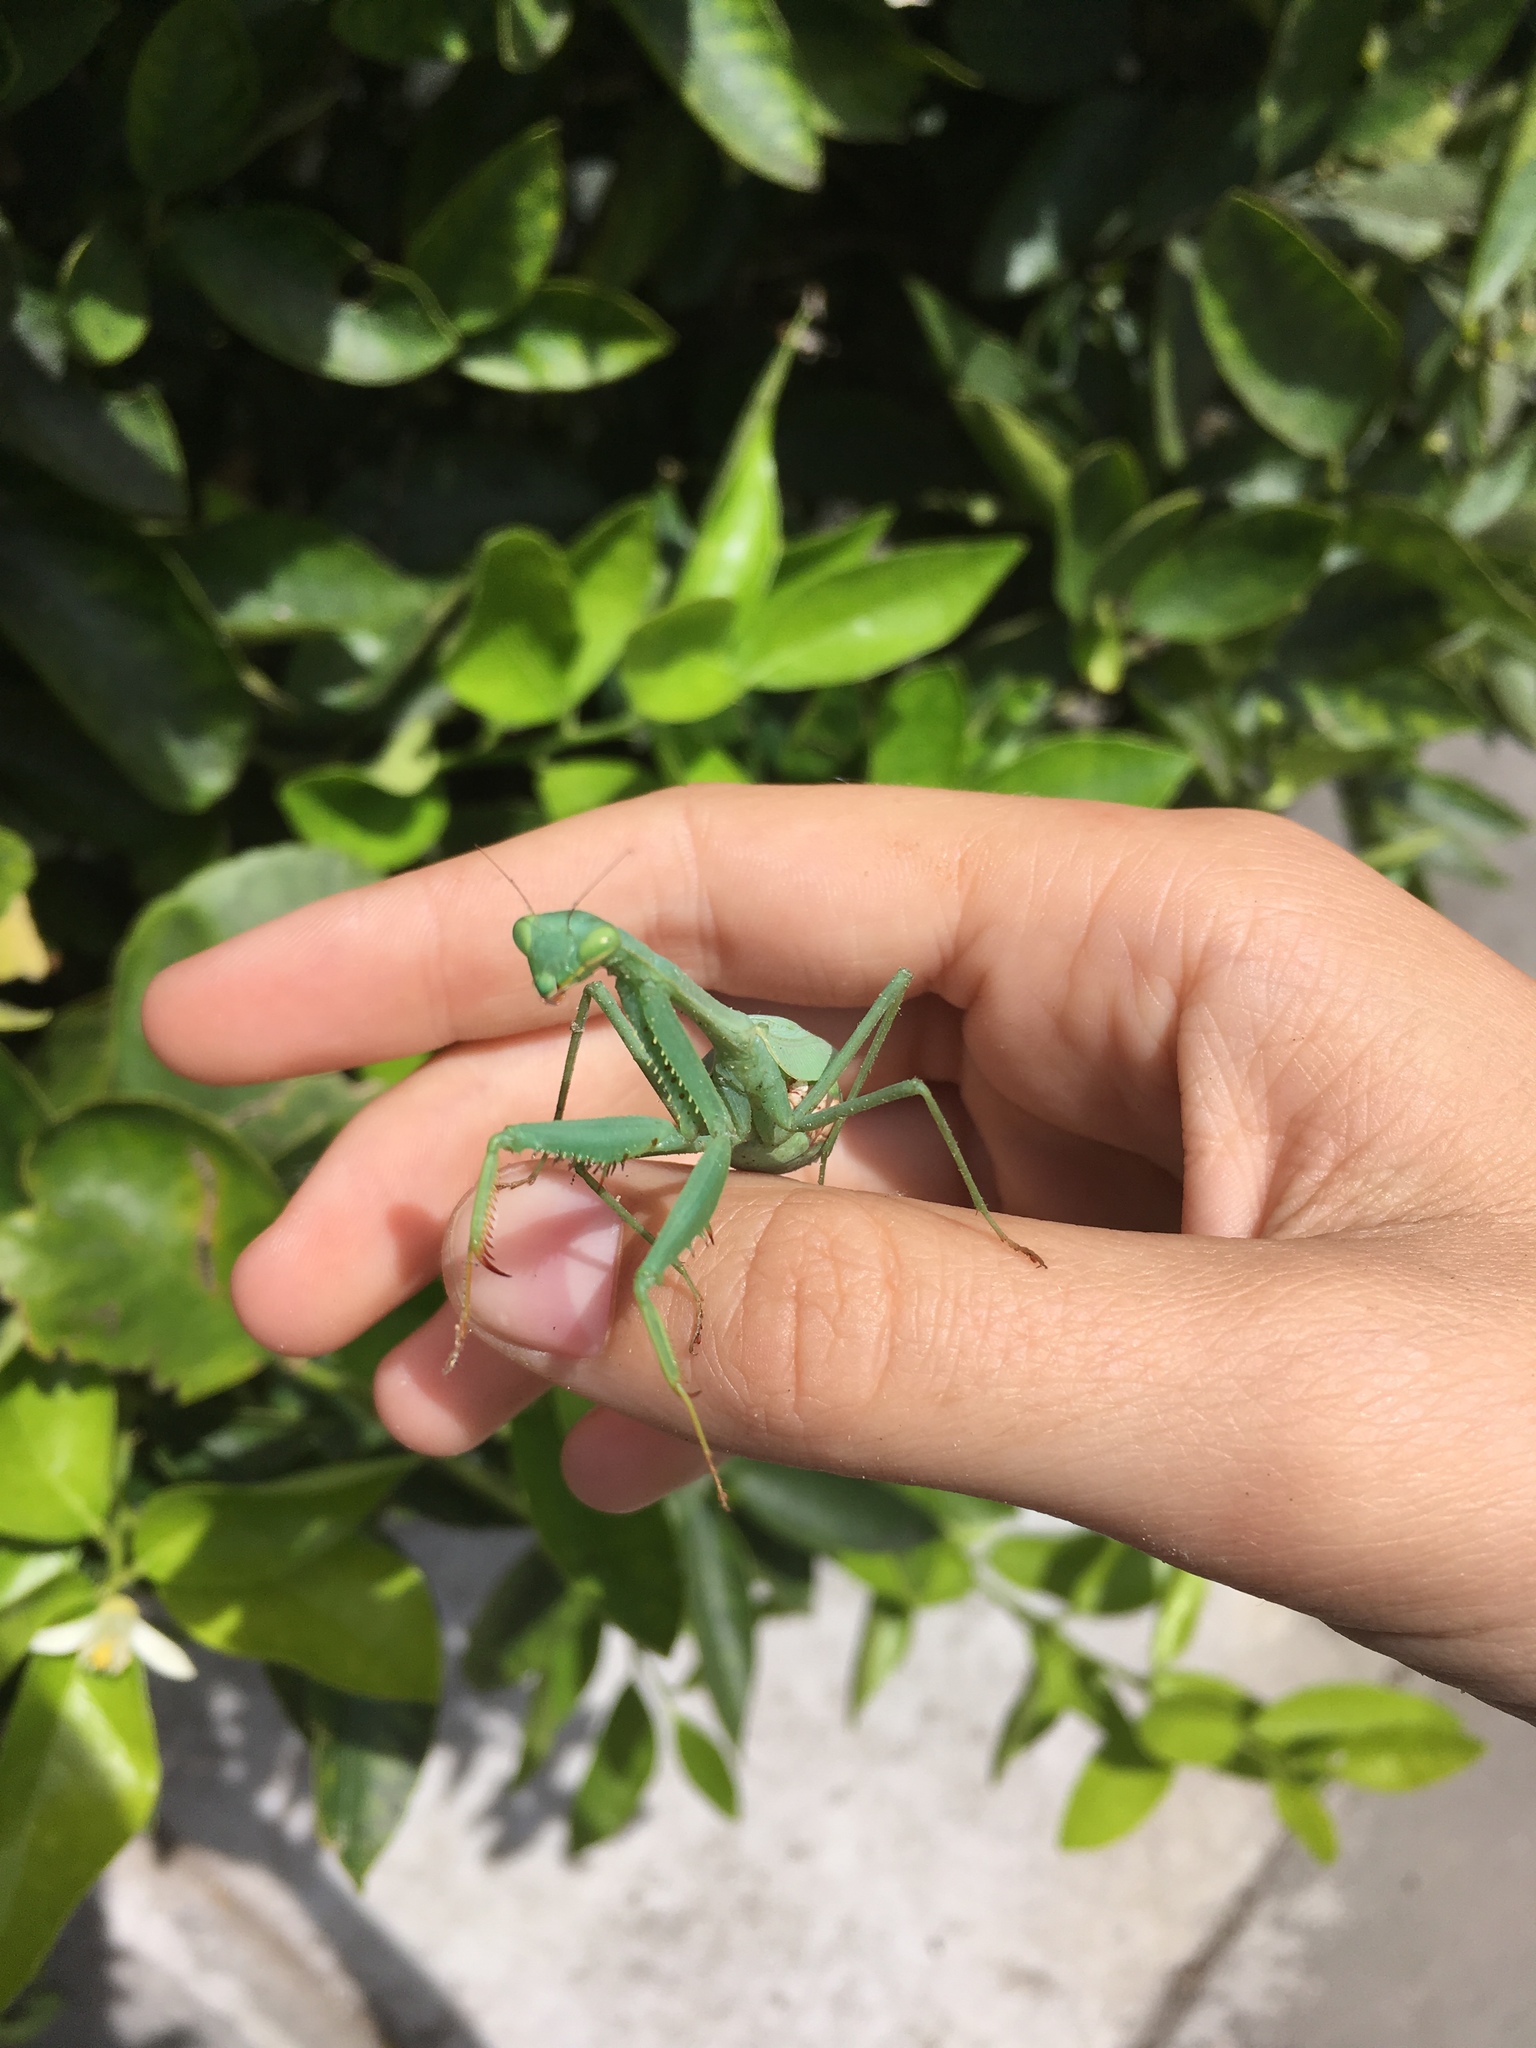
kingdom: Animalia
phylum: Arthropoda
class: Insecta
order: Mantodea
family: Miomantidae
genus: Miomantis
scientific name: Miomantis caffra
